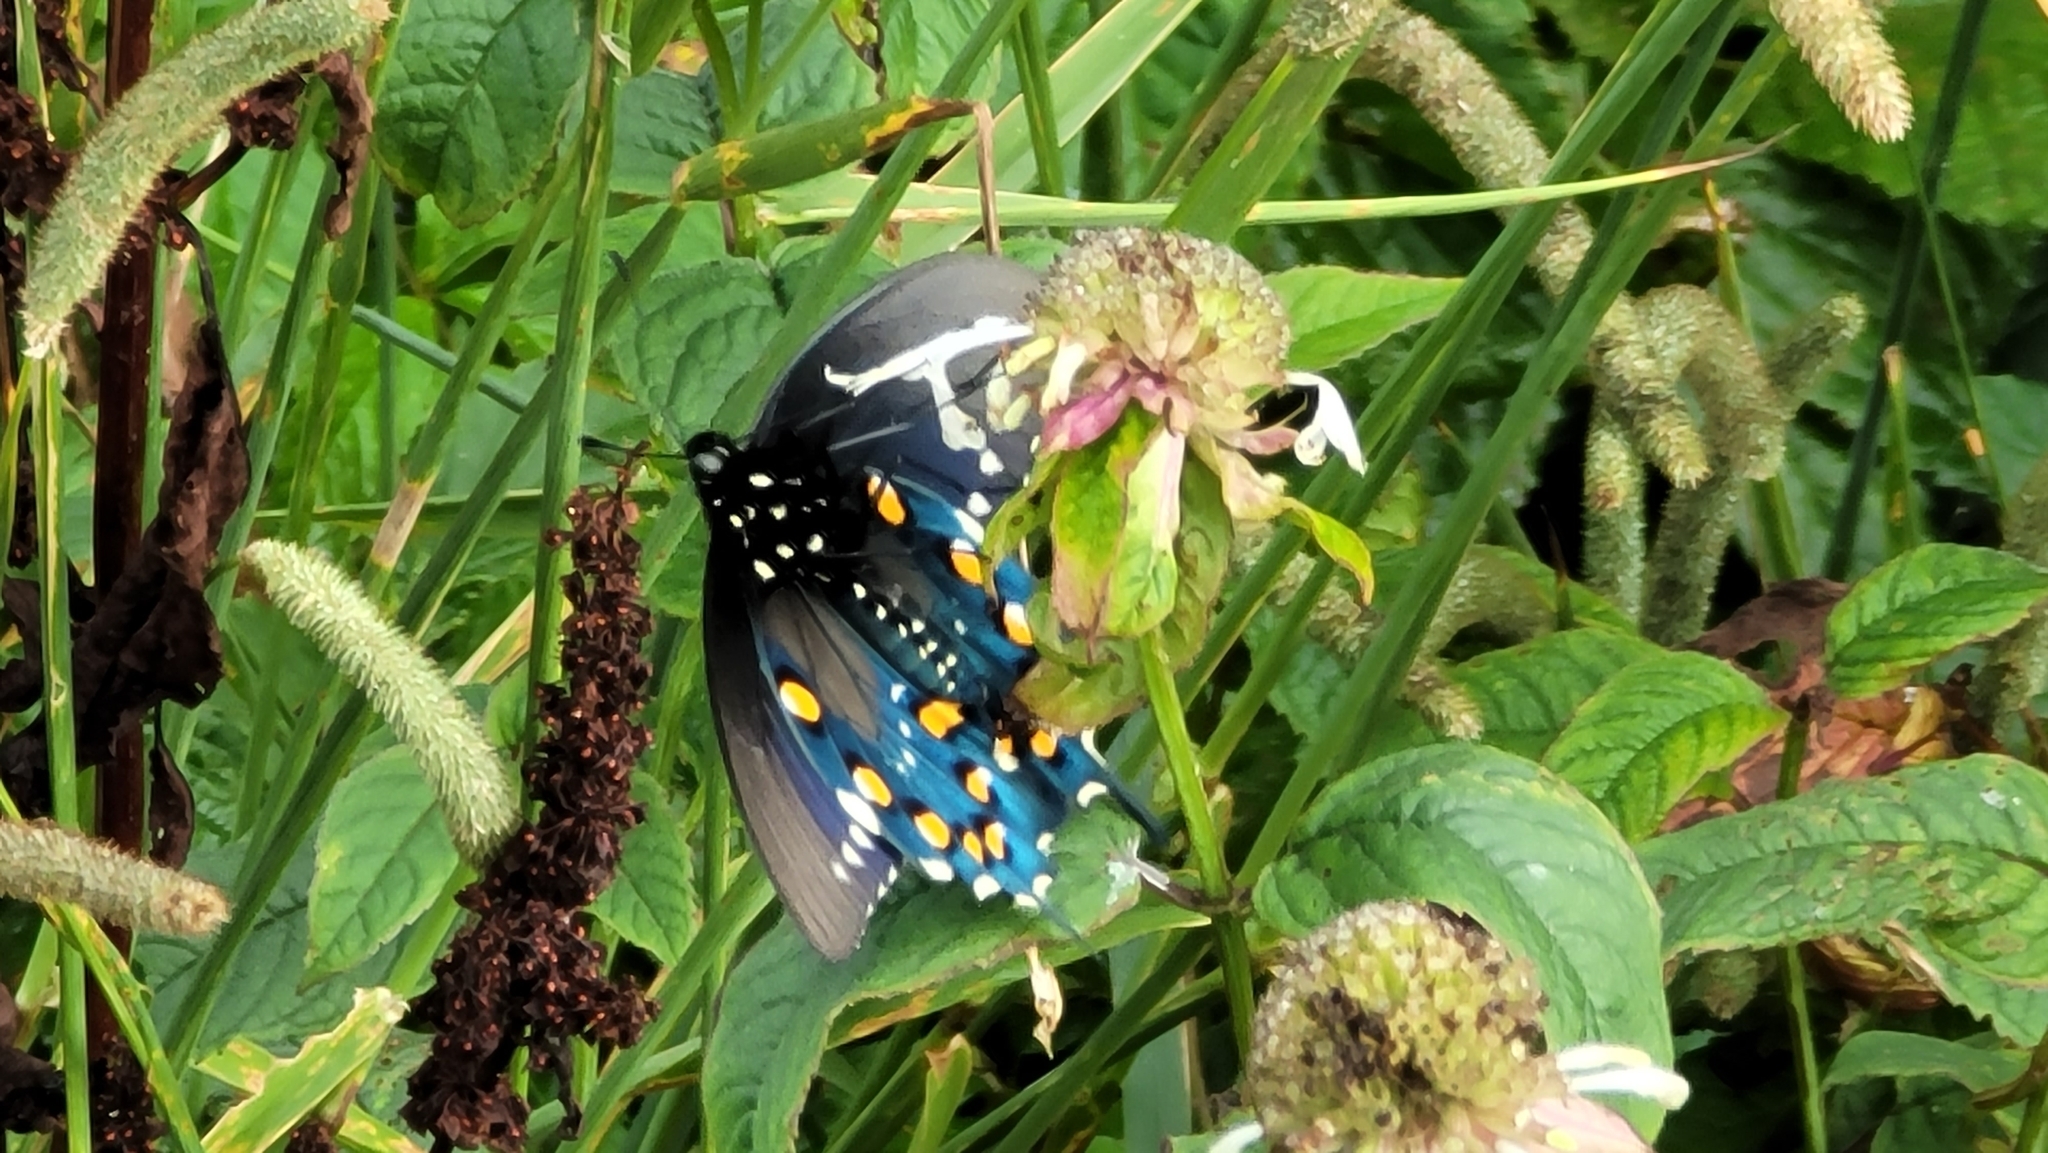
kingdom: Animalia
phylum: Arthropoda
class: Insecta
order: Lepidoptera
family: Papilionidae
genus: Battus
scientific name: Battus philenor
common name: Pipevine swallowtail
